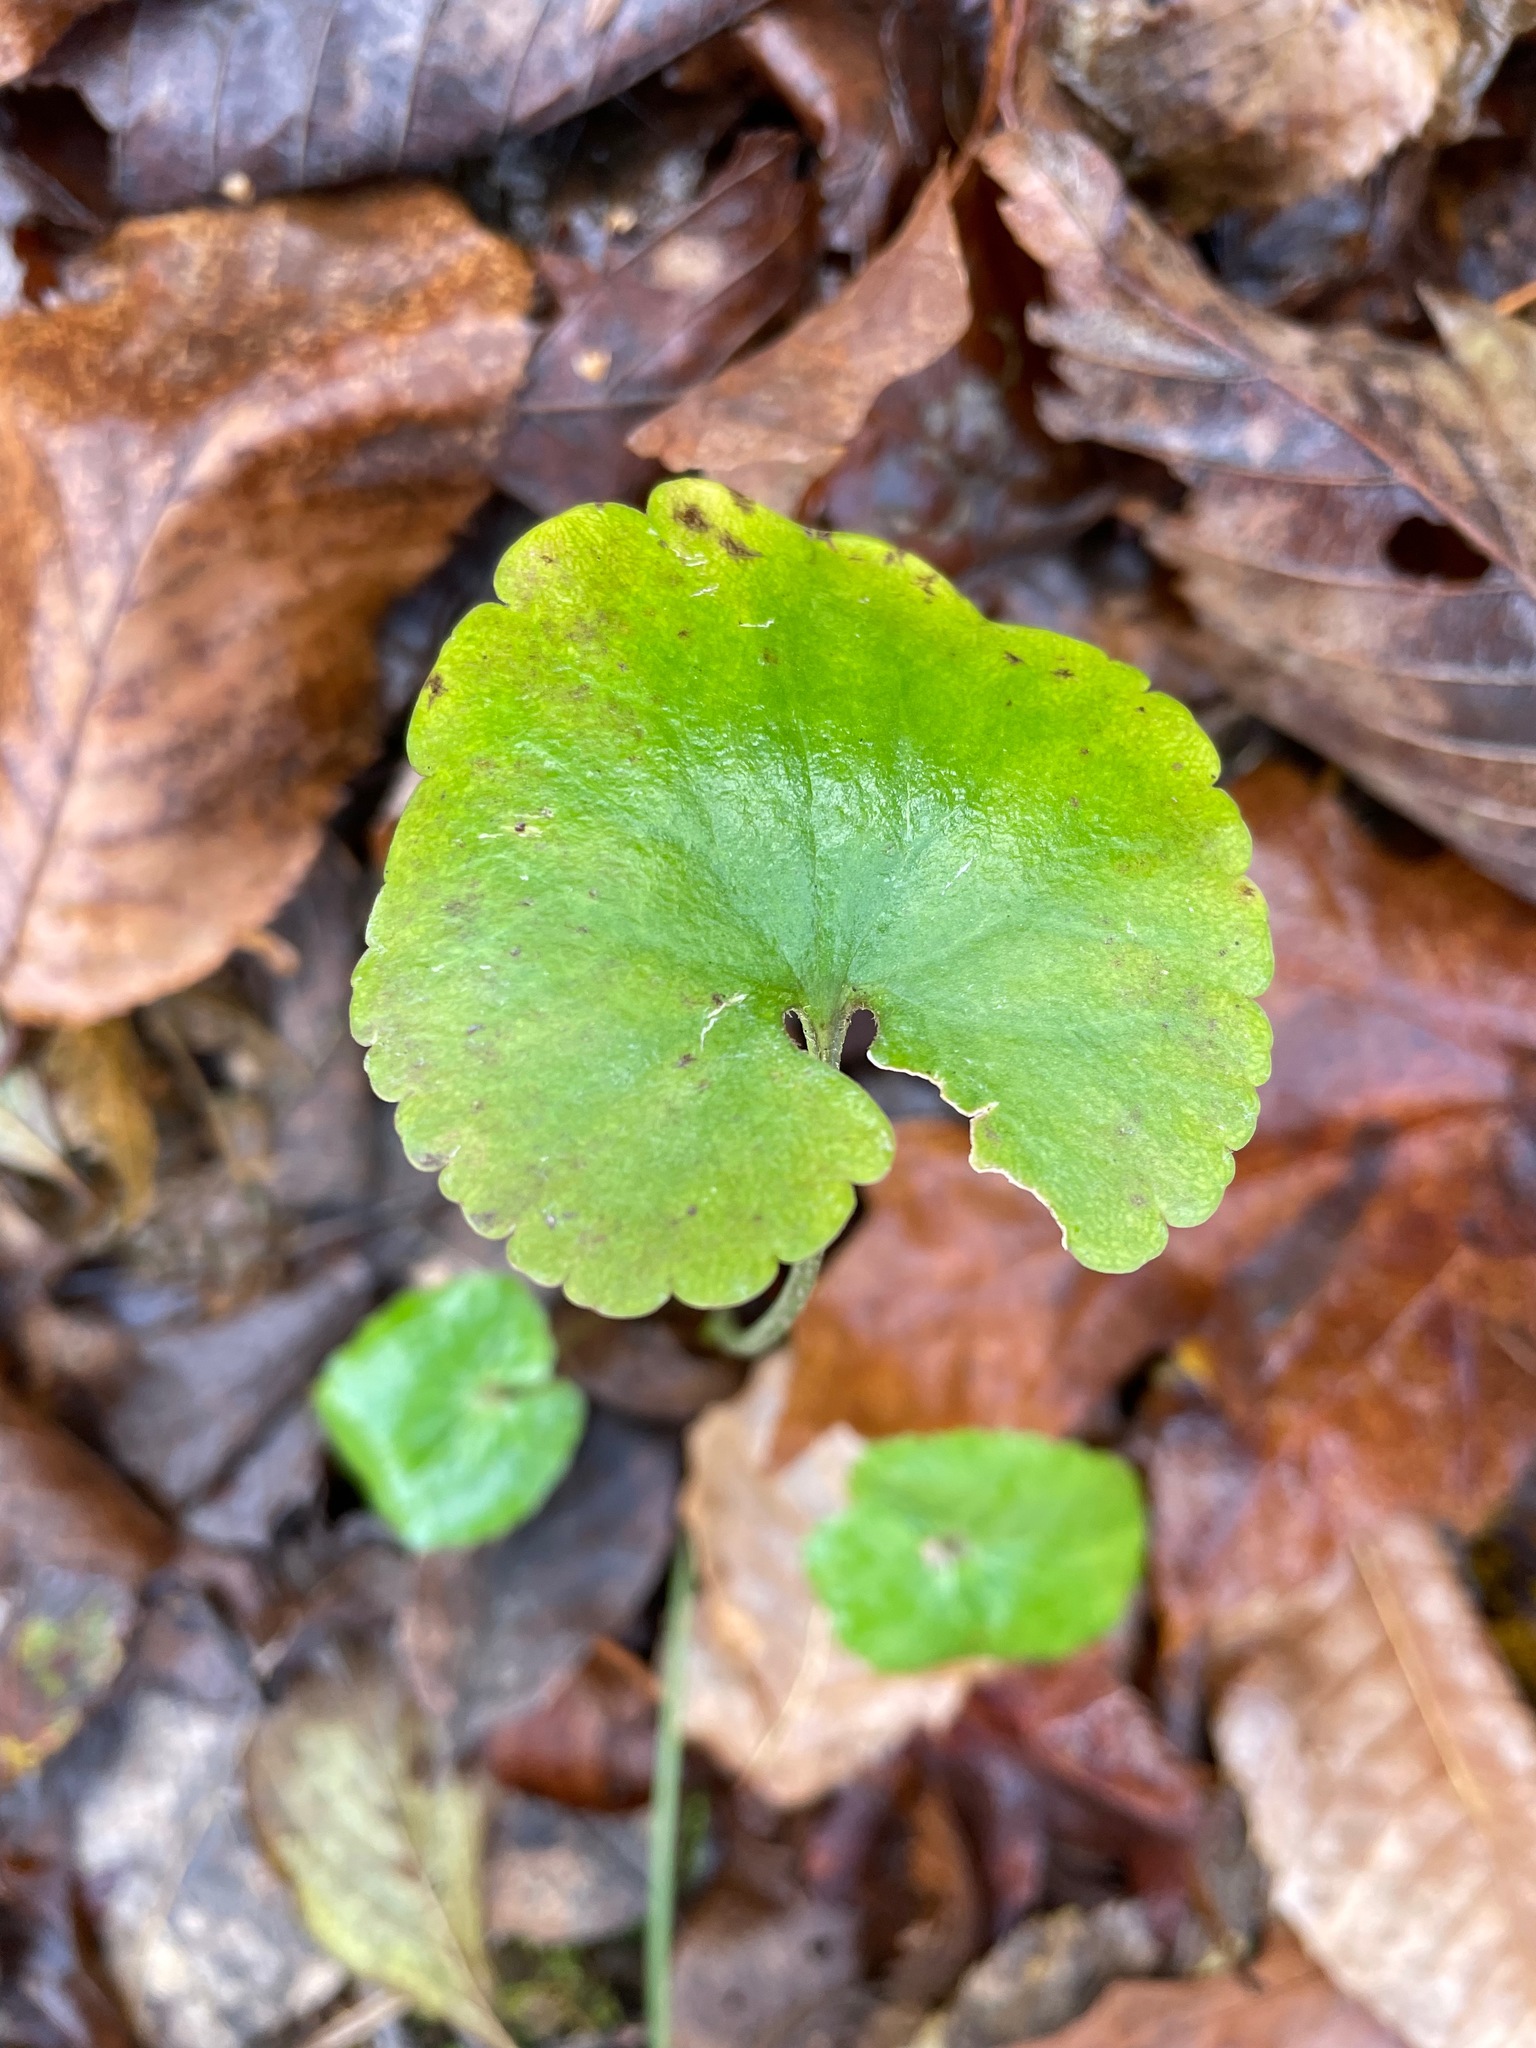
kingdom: Plantae
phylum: Tracheophyta
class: Magnoliopsida
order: Ranunculales
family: Ranunculaceae
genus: Ranunculus
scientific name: Ranunculus abortivus
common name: Early wood buttercup
